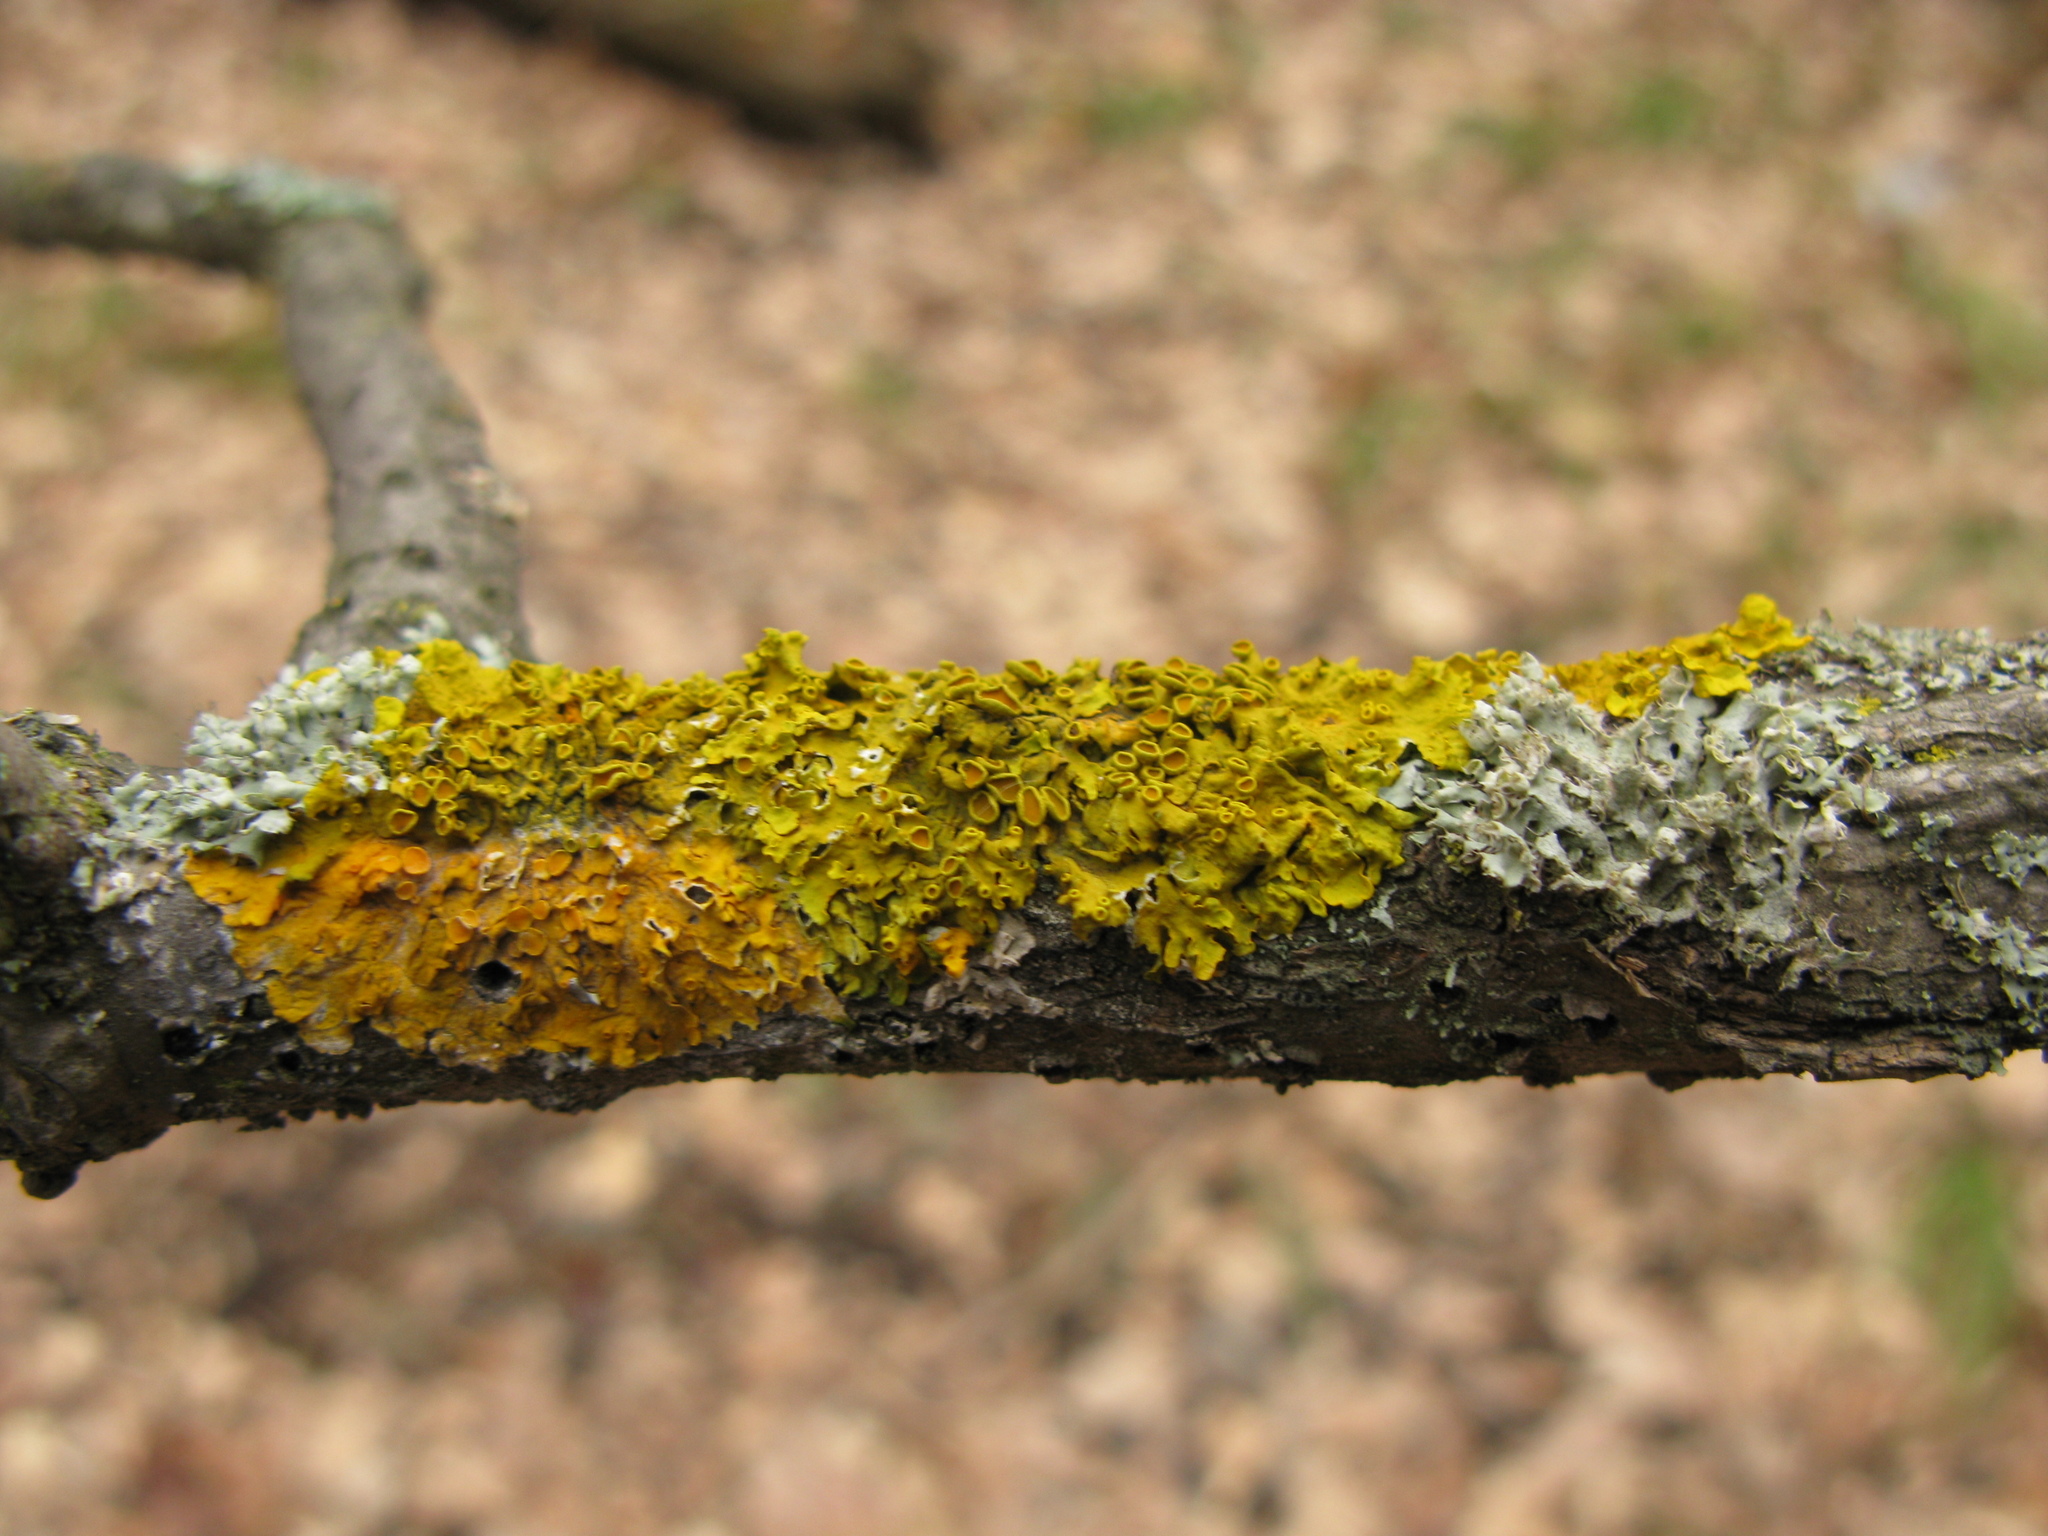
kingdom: Fungi
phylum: Ascomycota
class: Lecanoromycetes
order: Teloschistales
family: Teloschistaceae
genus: Xanthoria
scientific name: Xanthoria parietina
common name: Common orange lichen
